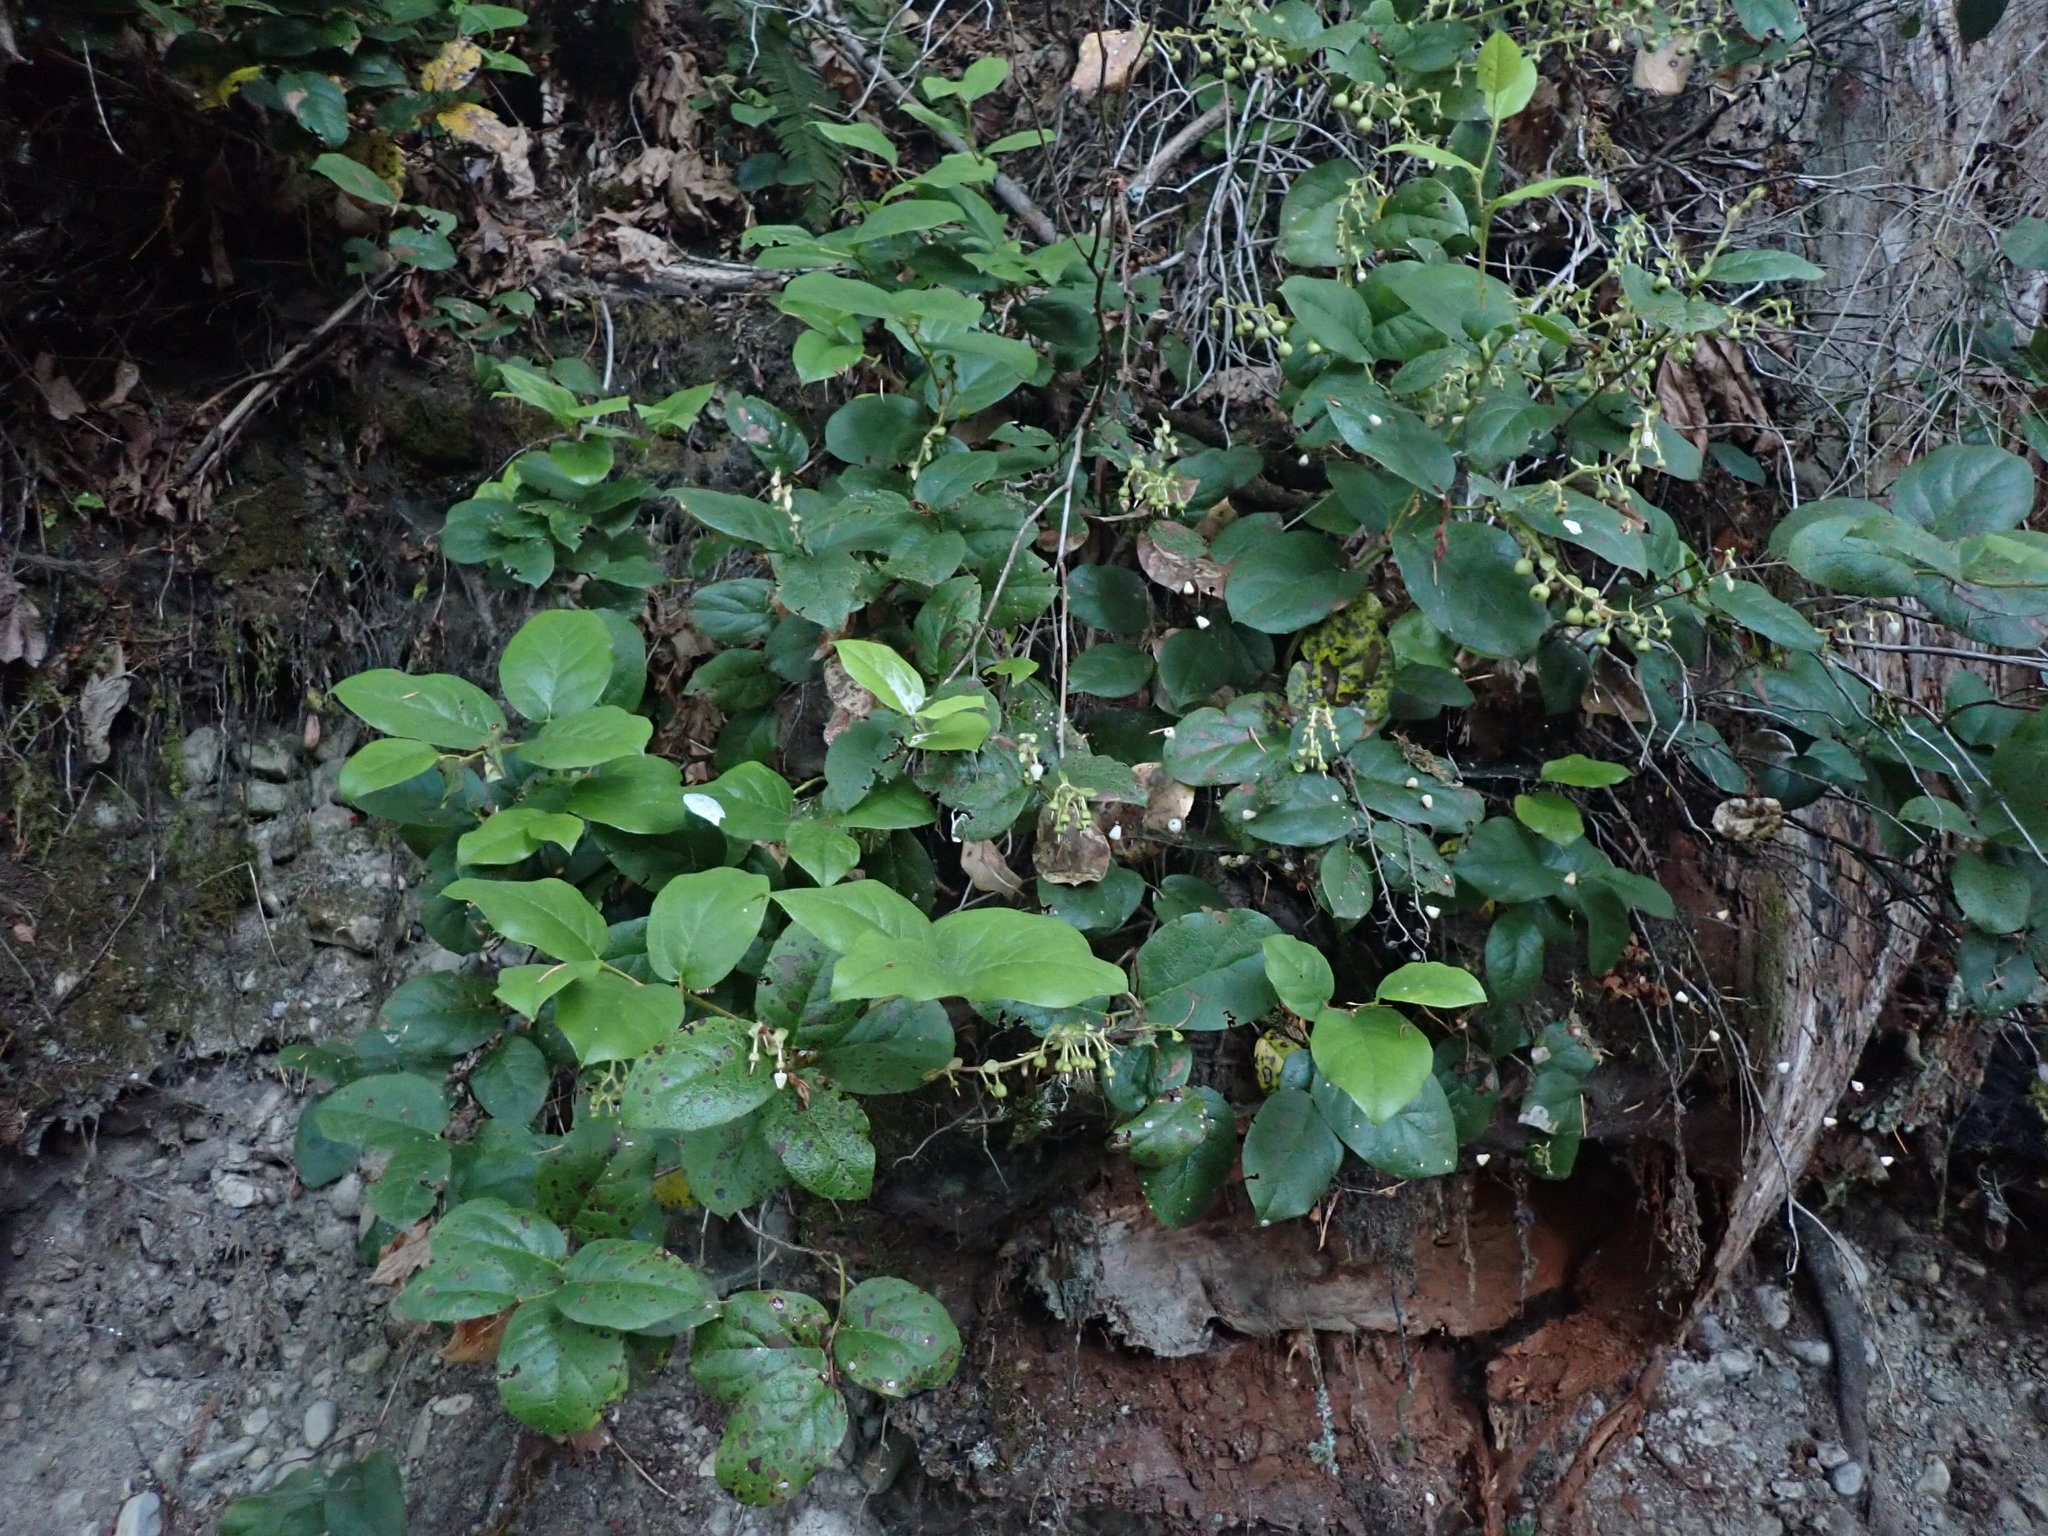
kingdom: Plantae
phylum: Tracheophyta
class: Magnoliopsida
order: Ericales
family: Ericaceae
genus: Gaultheria
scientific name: Gaultheria shallon
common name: Shallon
